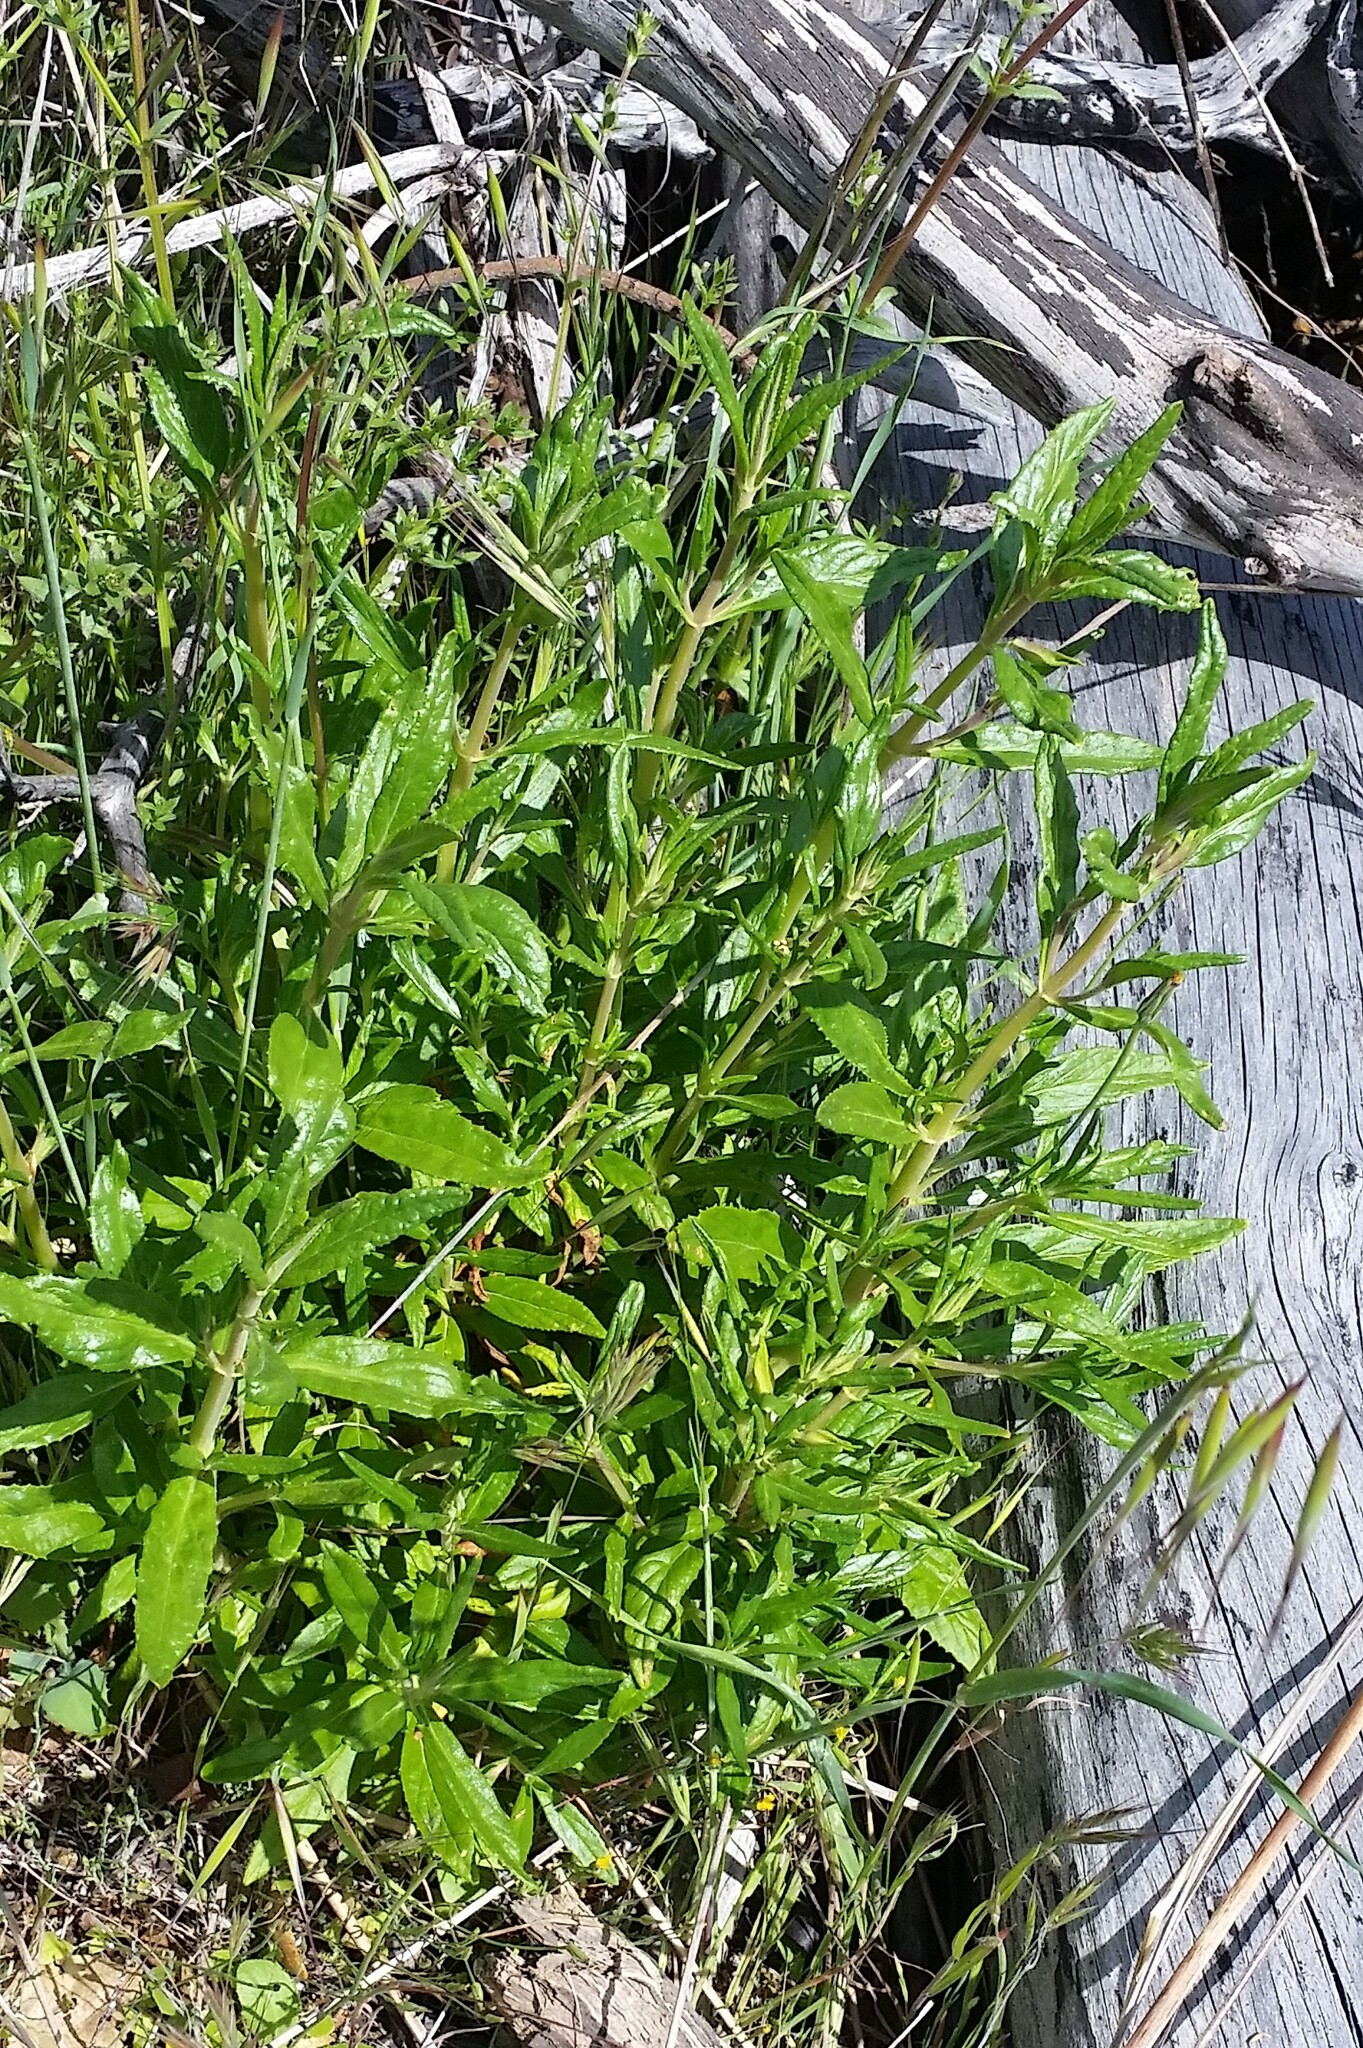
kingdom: Plantae
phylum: Tracheophyta
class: Magnoliopsida
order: Lamiales
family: Phrymaceae
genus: Diplacus
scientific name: Diplacus aurantiacus
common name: Bush monkey-flower
